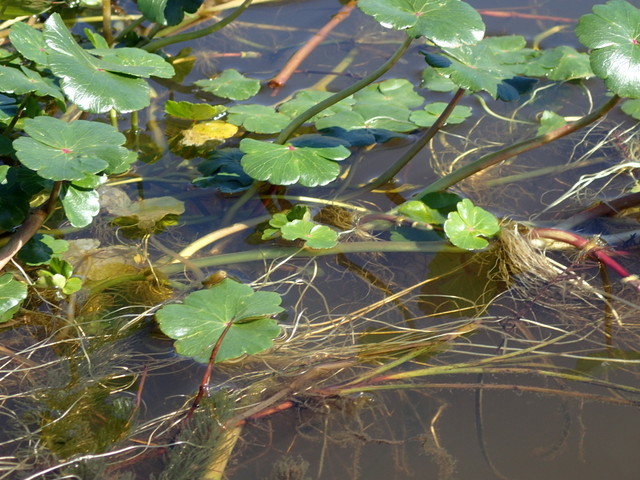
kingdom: Plantae
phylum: Tracheophyta
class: Magnoliopsida
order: Apiales
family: Araliaceae
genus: Hydrocotyle
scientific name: Hydrocotyle ranunculoides
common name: Floating pennywort
